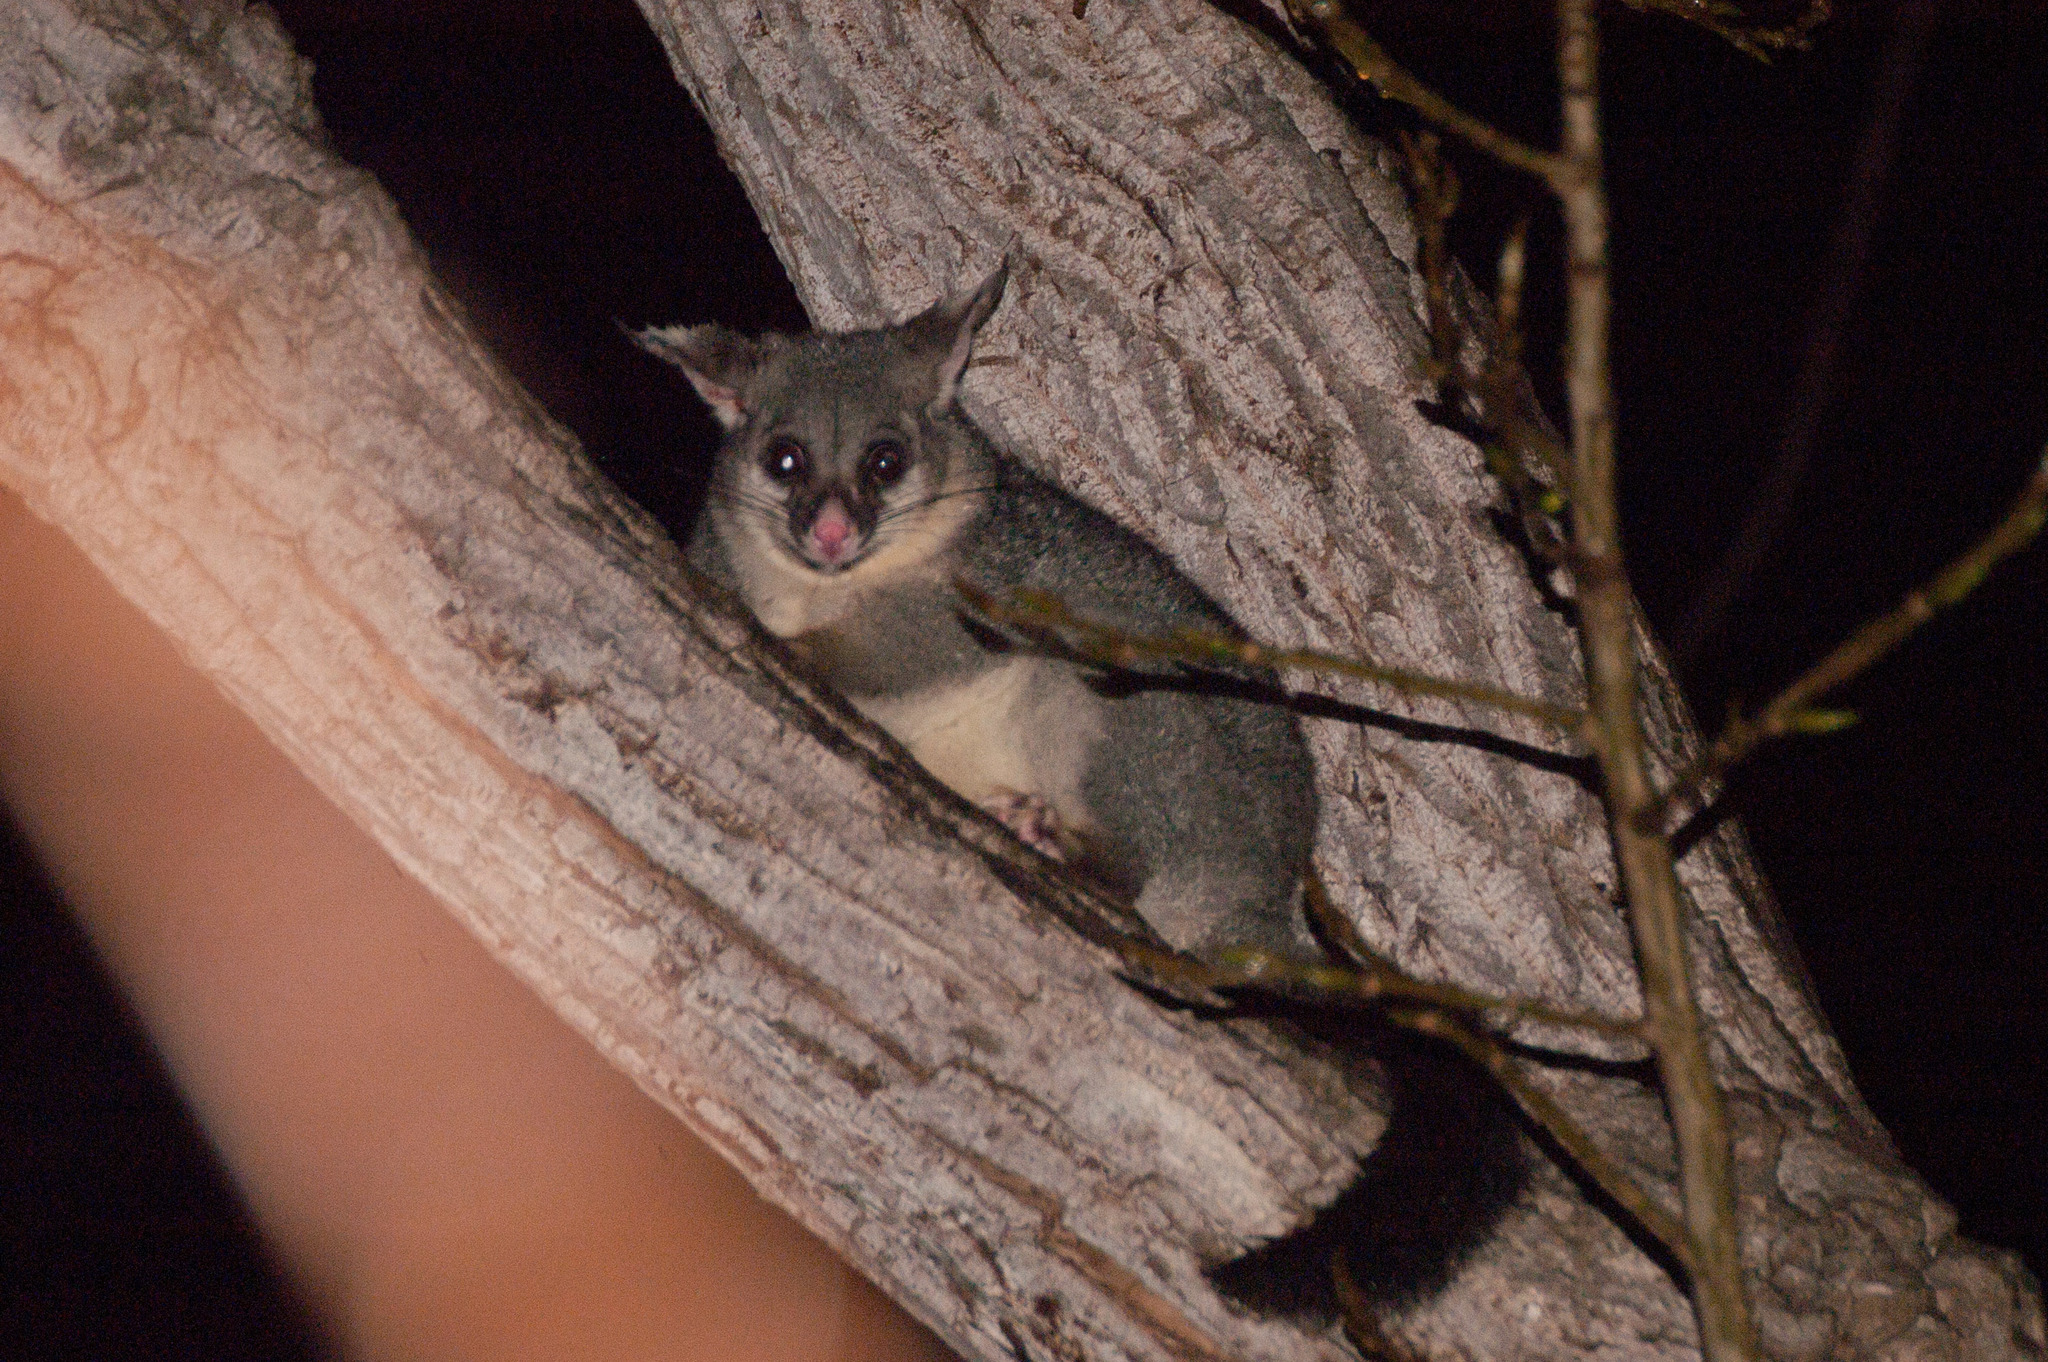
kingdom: Animalia
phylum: Chordata
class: Mammalia
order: Diprotodontia
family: Phalangeridae
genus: Trichosurus
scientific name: Trichosurus vulpecula
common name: Common brushtail
